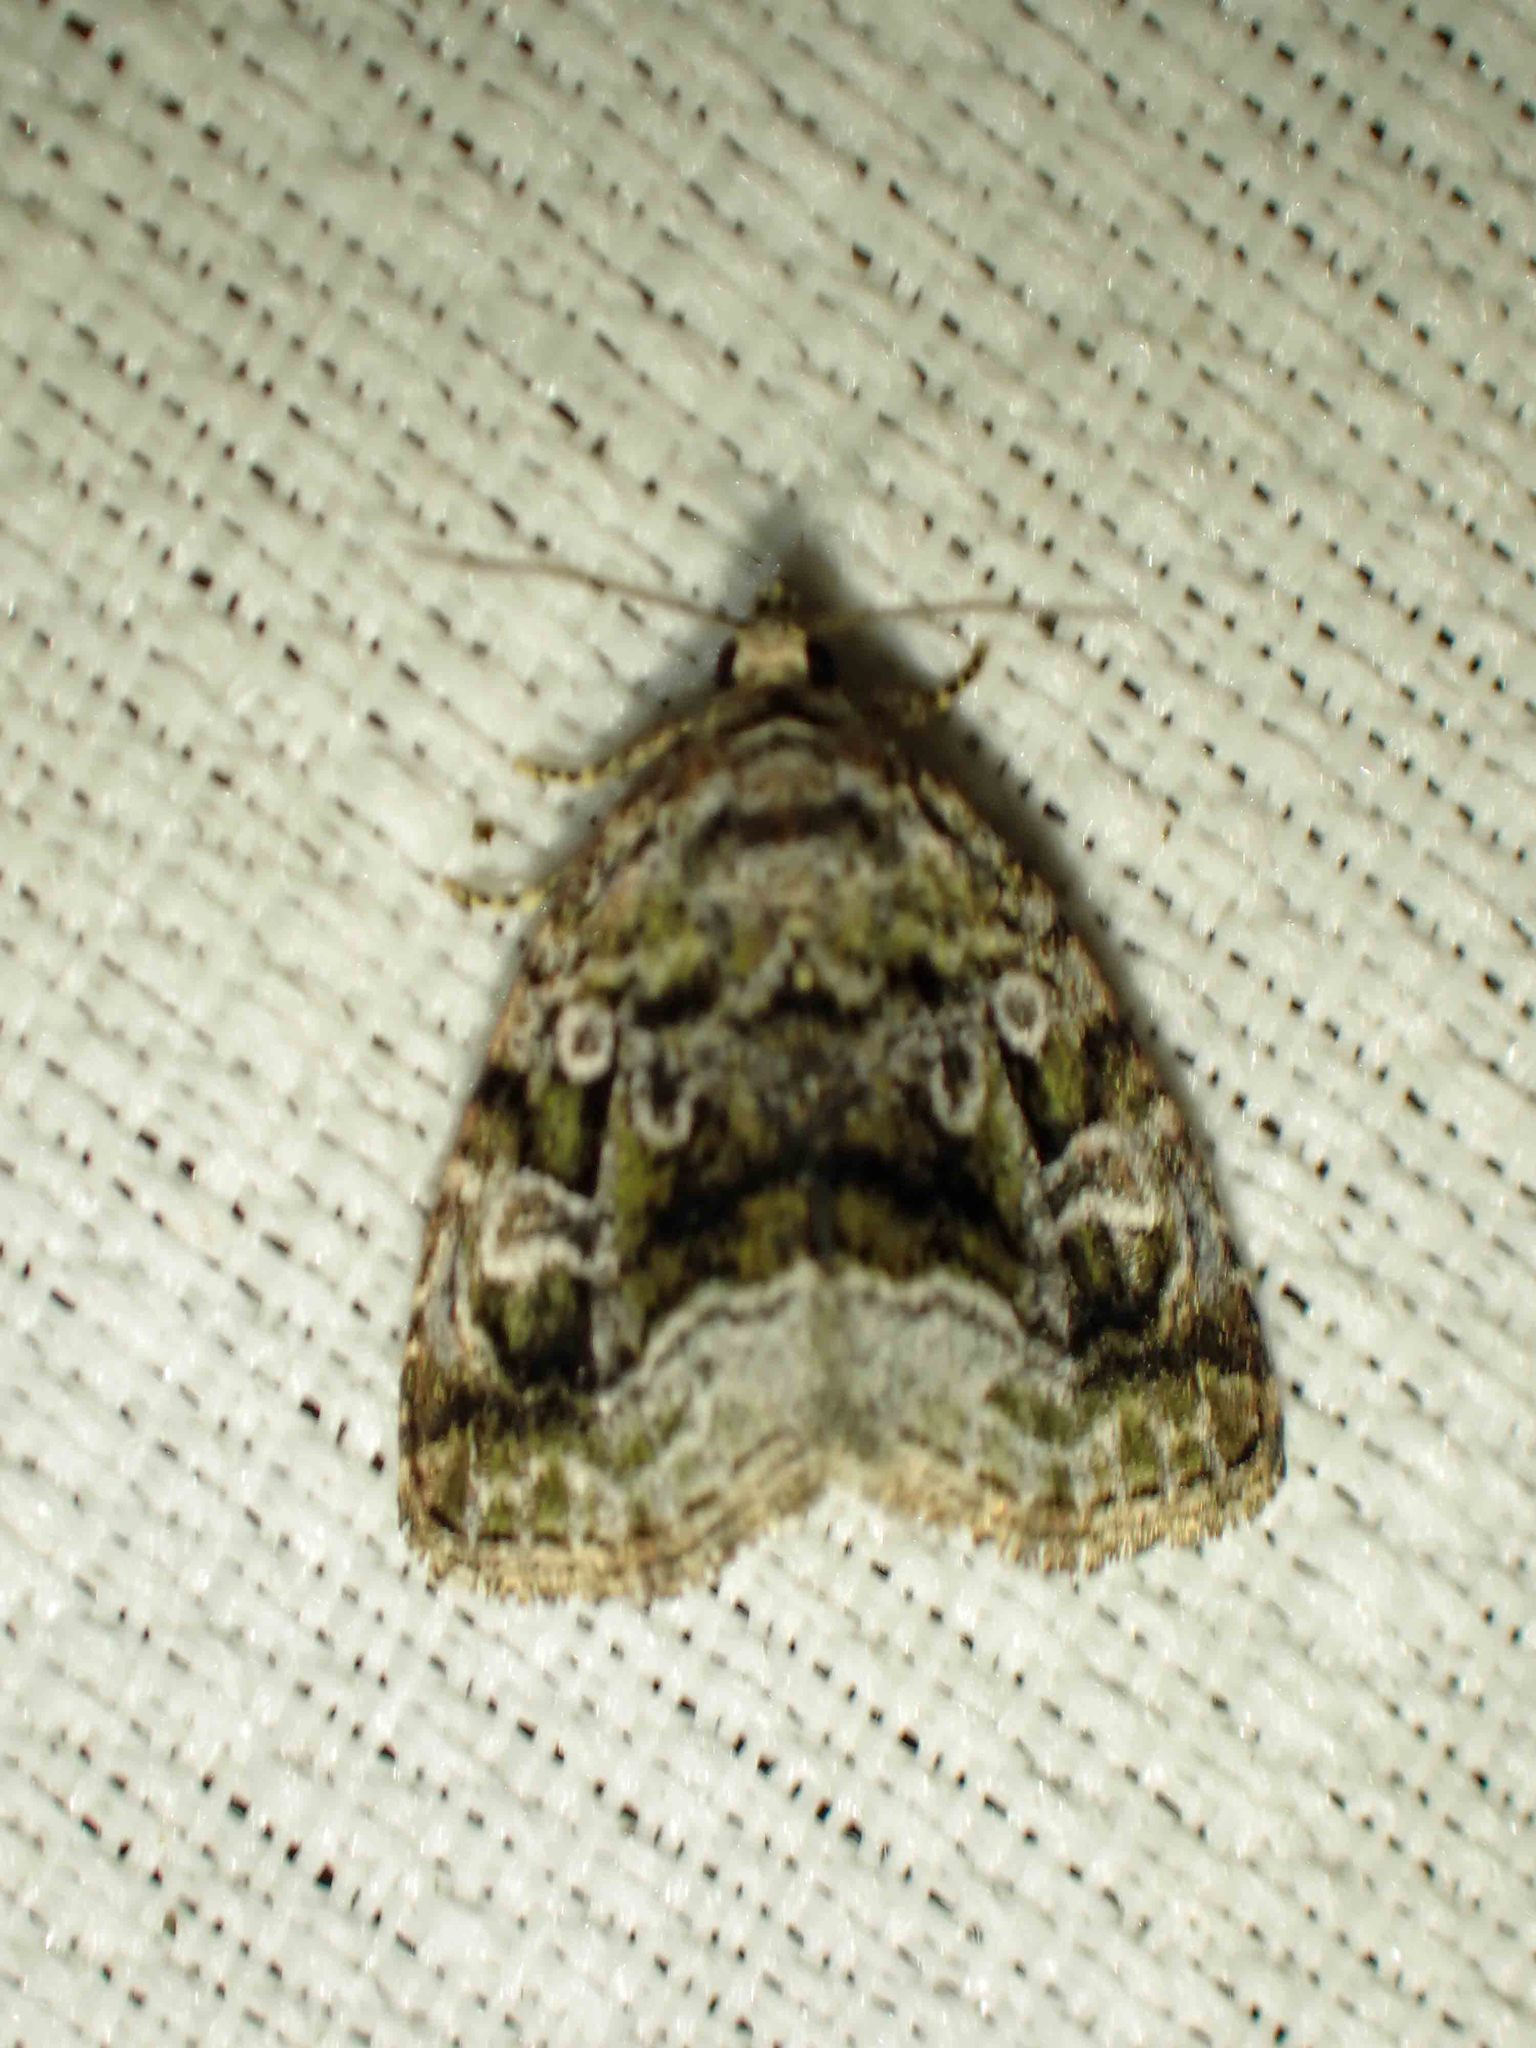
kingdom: Animalia
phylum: Arthropoda
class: Insecta
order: Lepidoptera
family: Noctuidae
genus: Protodeltote
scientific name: Protodeltote muscosula
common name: Large mossy glyph
